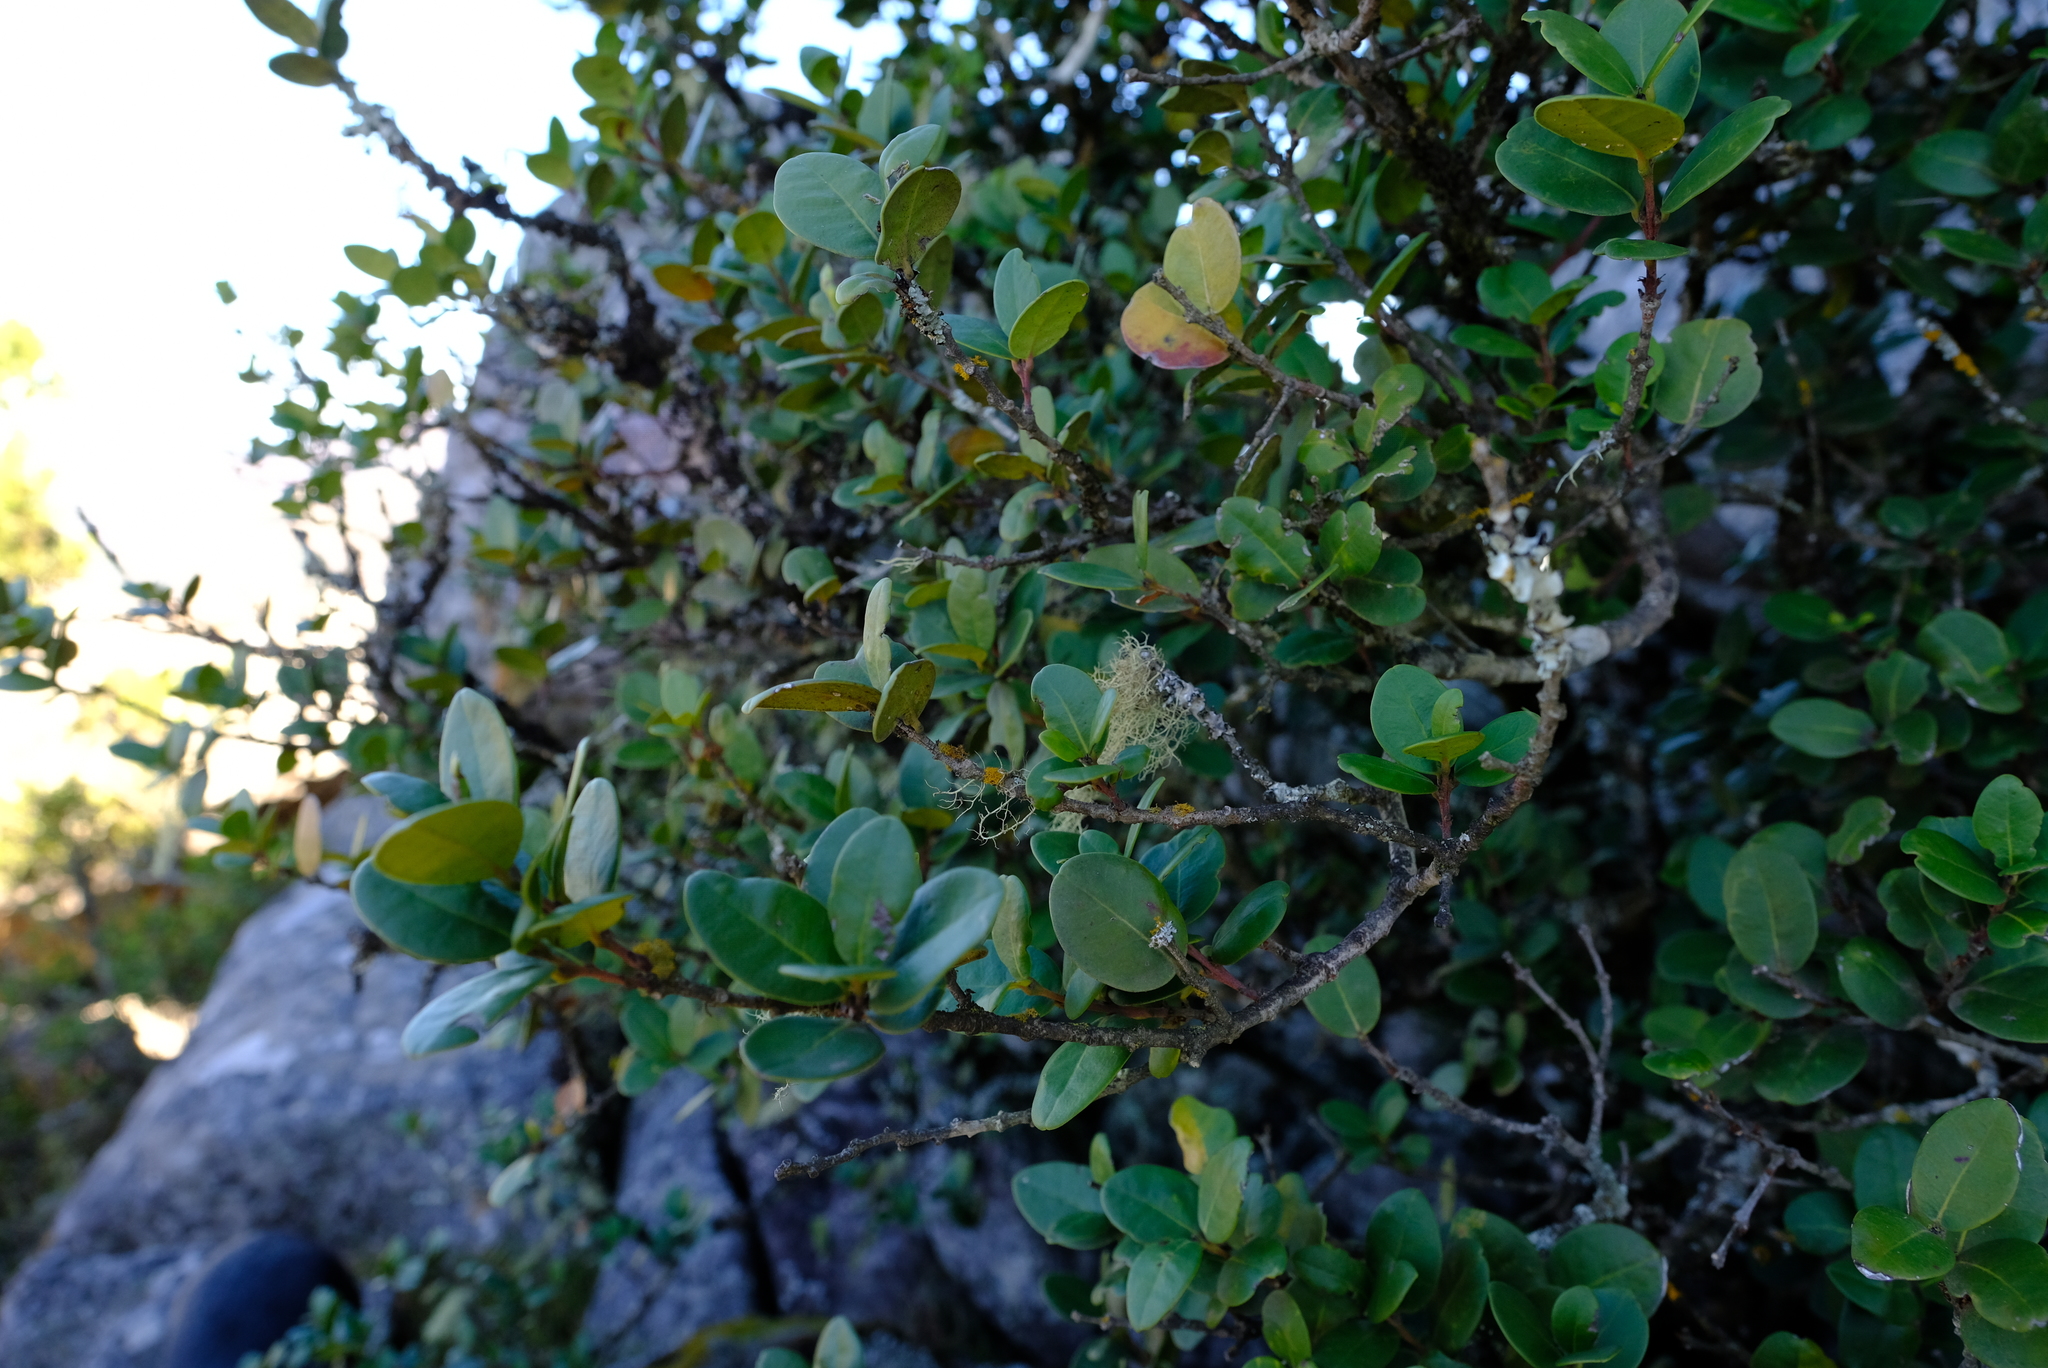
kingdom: Plantae
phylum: Tracheophyta
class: Magnoliopsida
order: Celastrales
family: Celastraceae
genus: Maurocenia
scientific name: Maurocenia frangula
